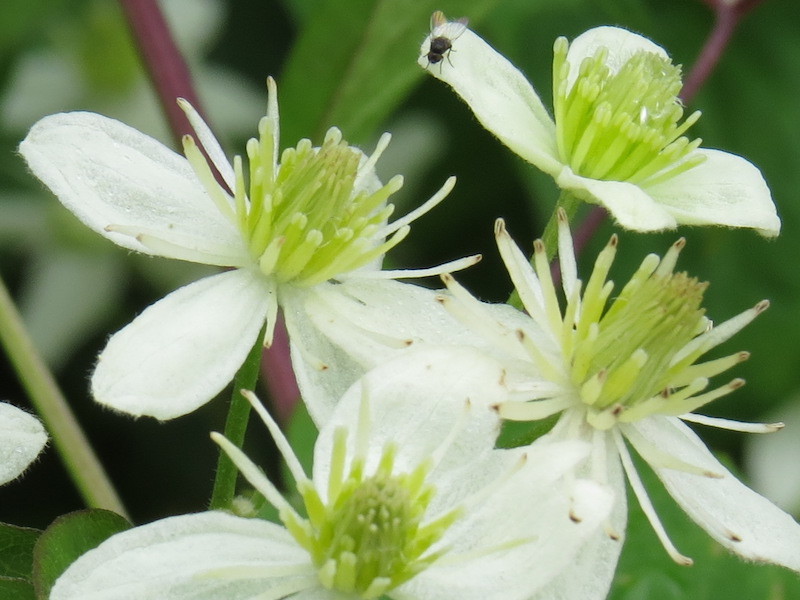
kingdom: Plantae
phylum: Tracheophyta
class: Magnoliopsida
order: Ranunculales
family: Ranunculaceae
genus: Clematis
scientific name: Clematis virginiana
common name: Virgin's-bower
